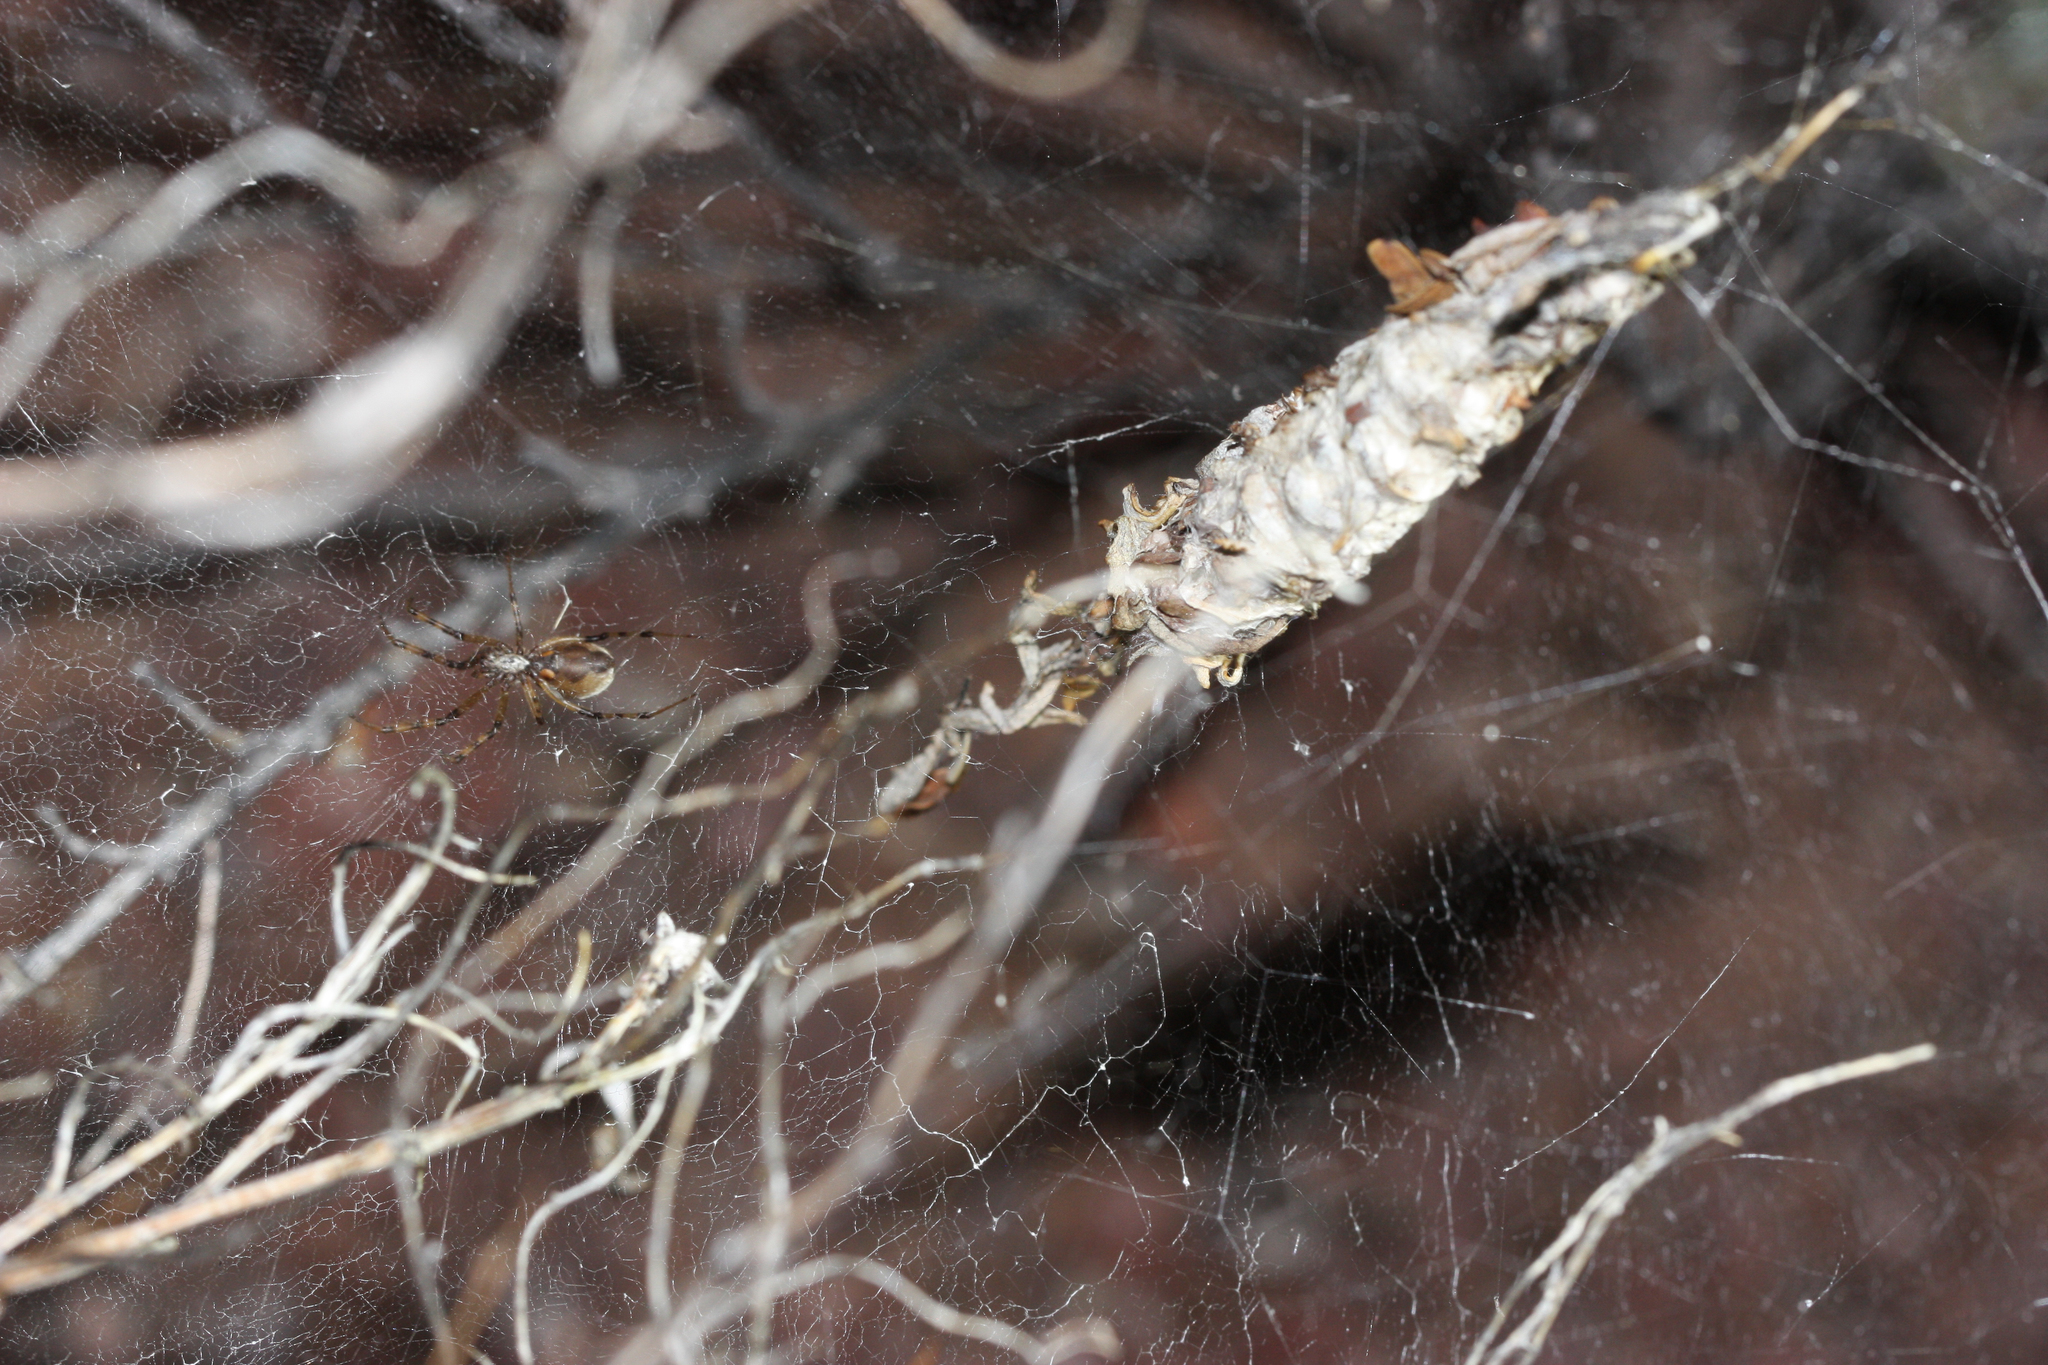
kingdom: Animalia
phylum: Arthropoda
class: Arachnida
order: Araneae
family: Diguetidae
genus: Diguetia
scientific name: Diguetia
